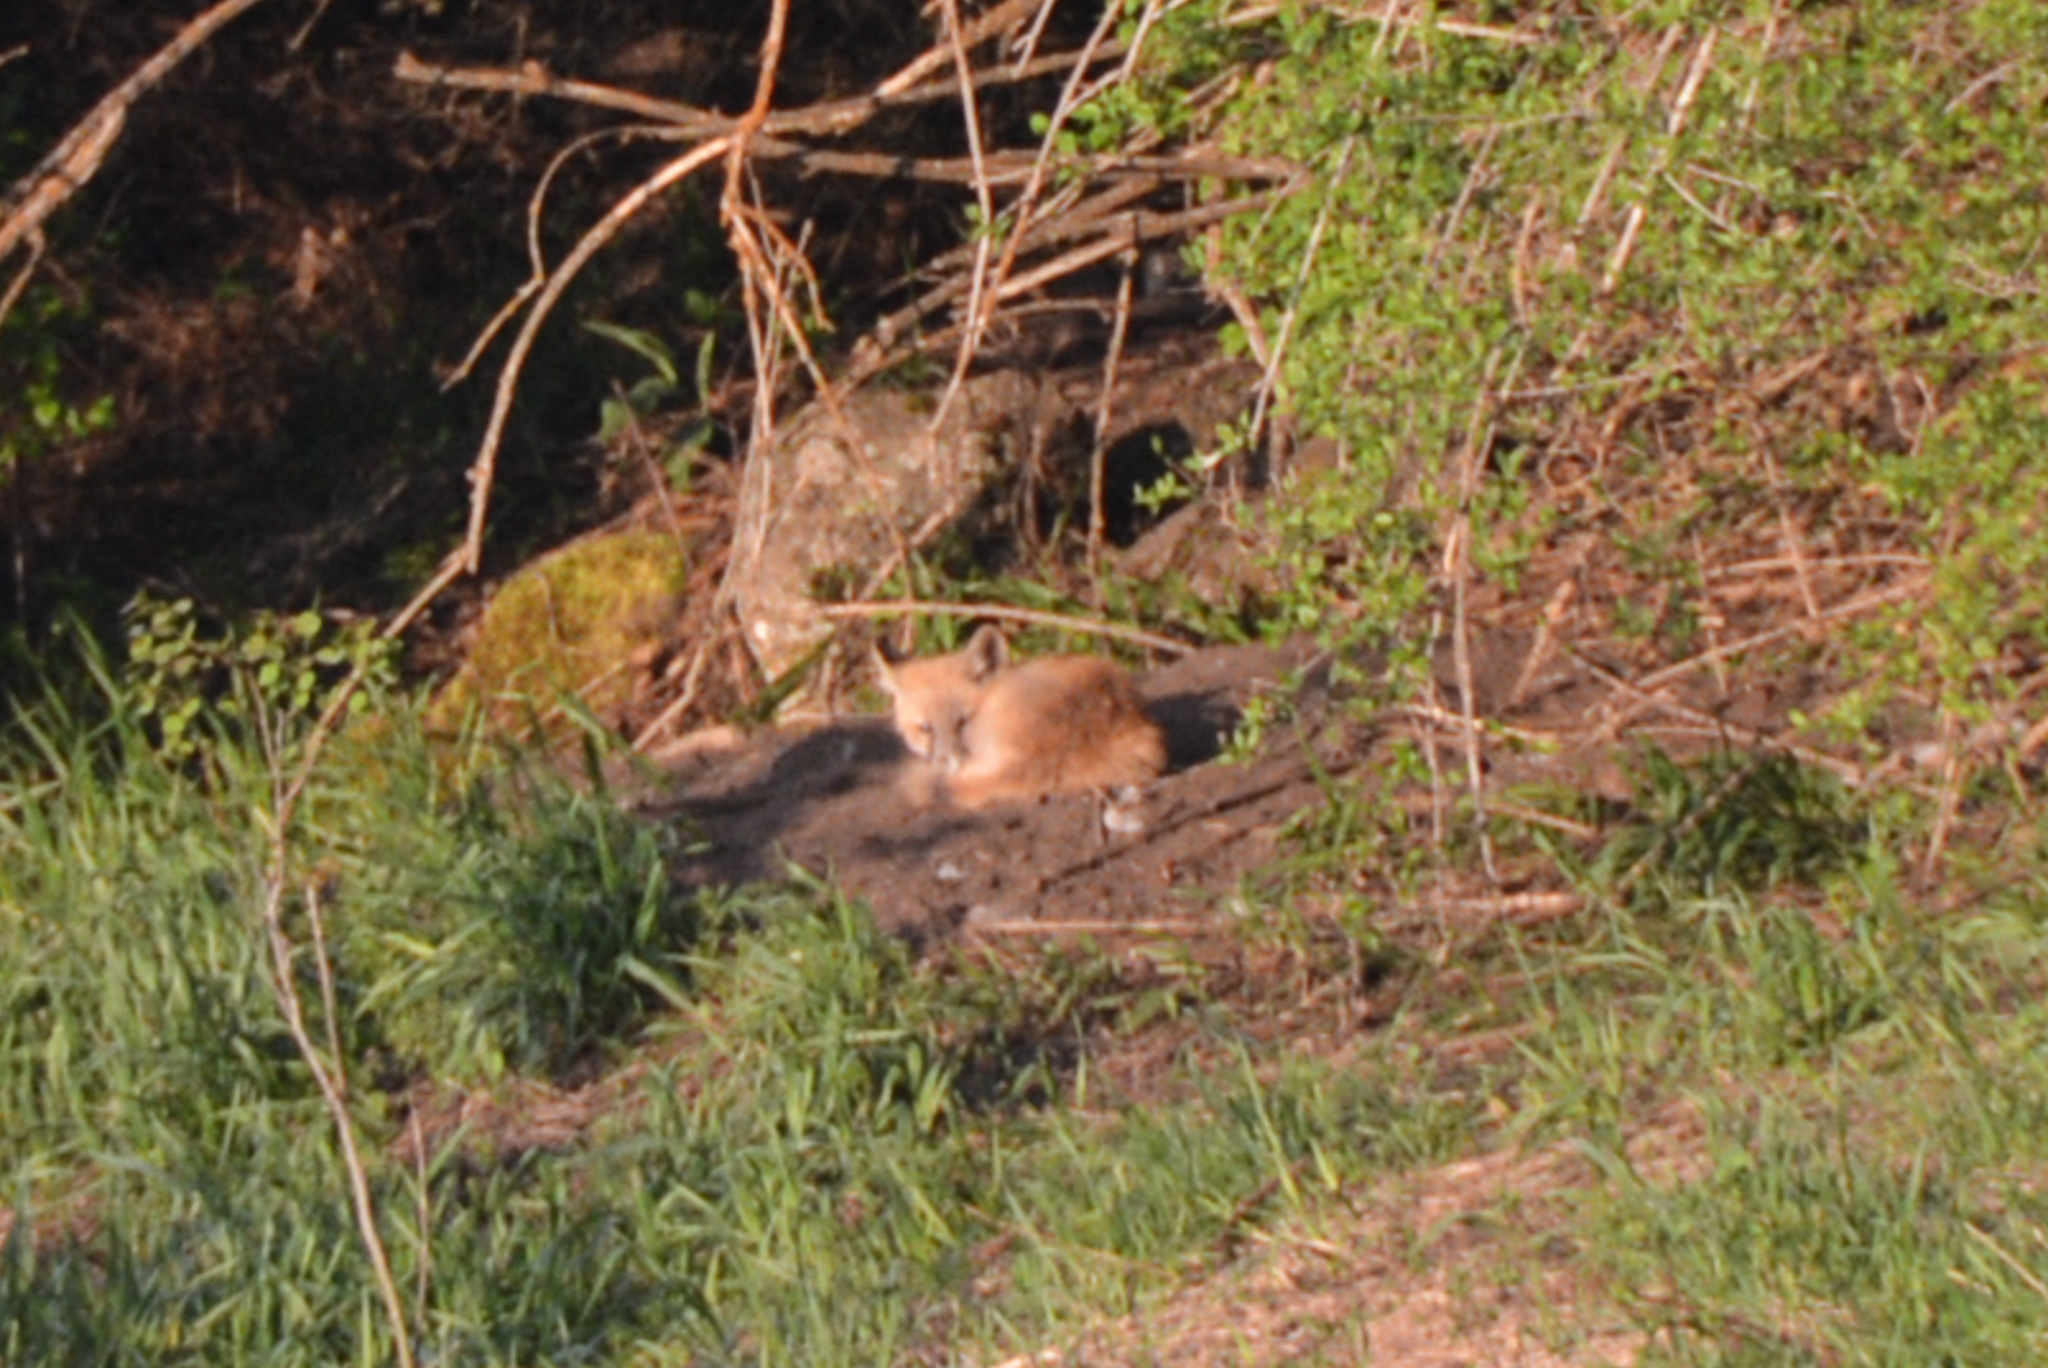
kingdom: Animalia
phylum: Chordata
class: Mammalia
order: Carnivora
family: Canidae
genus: Vulpes
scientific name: Vulpes vulpes
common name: Red fox
